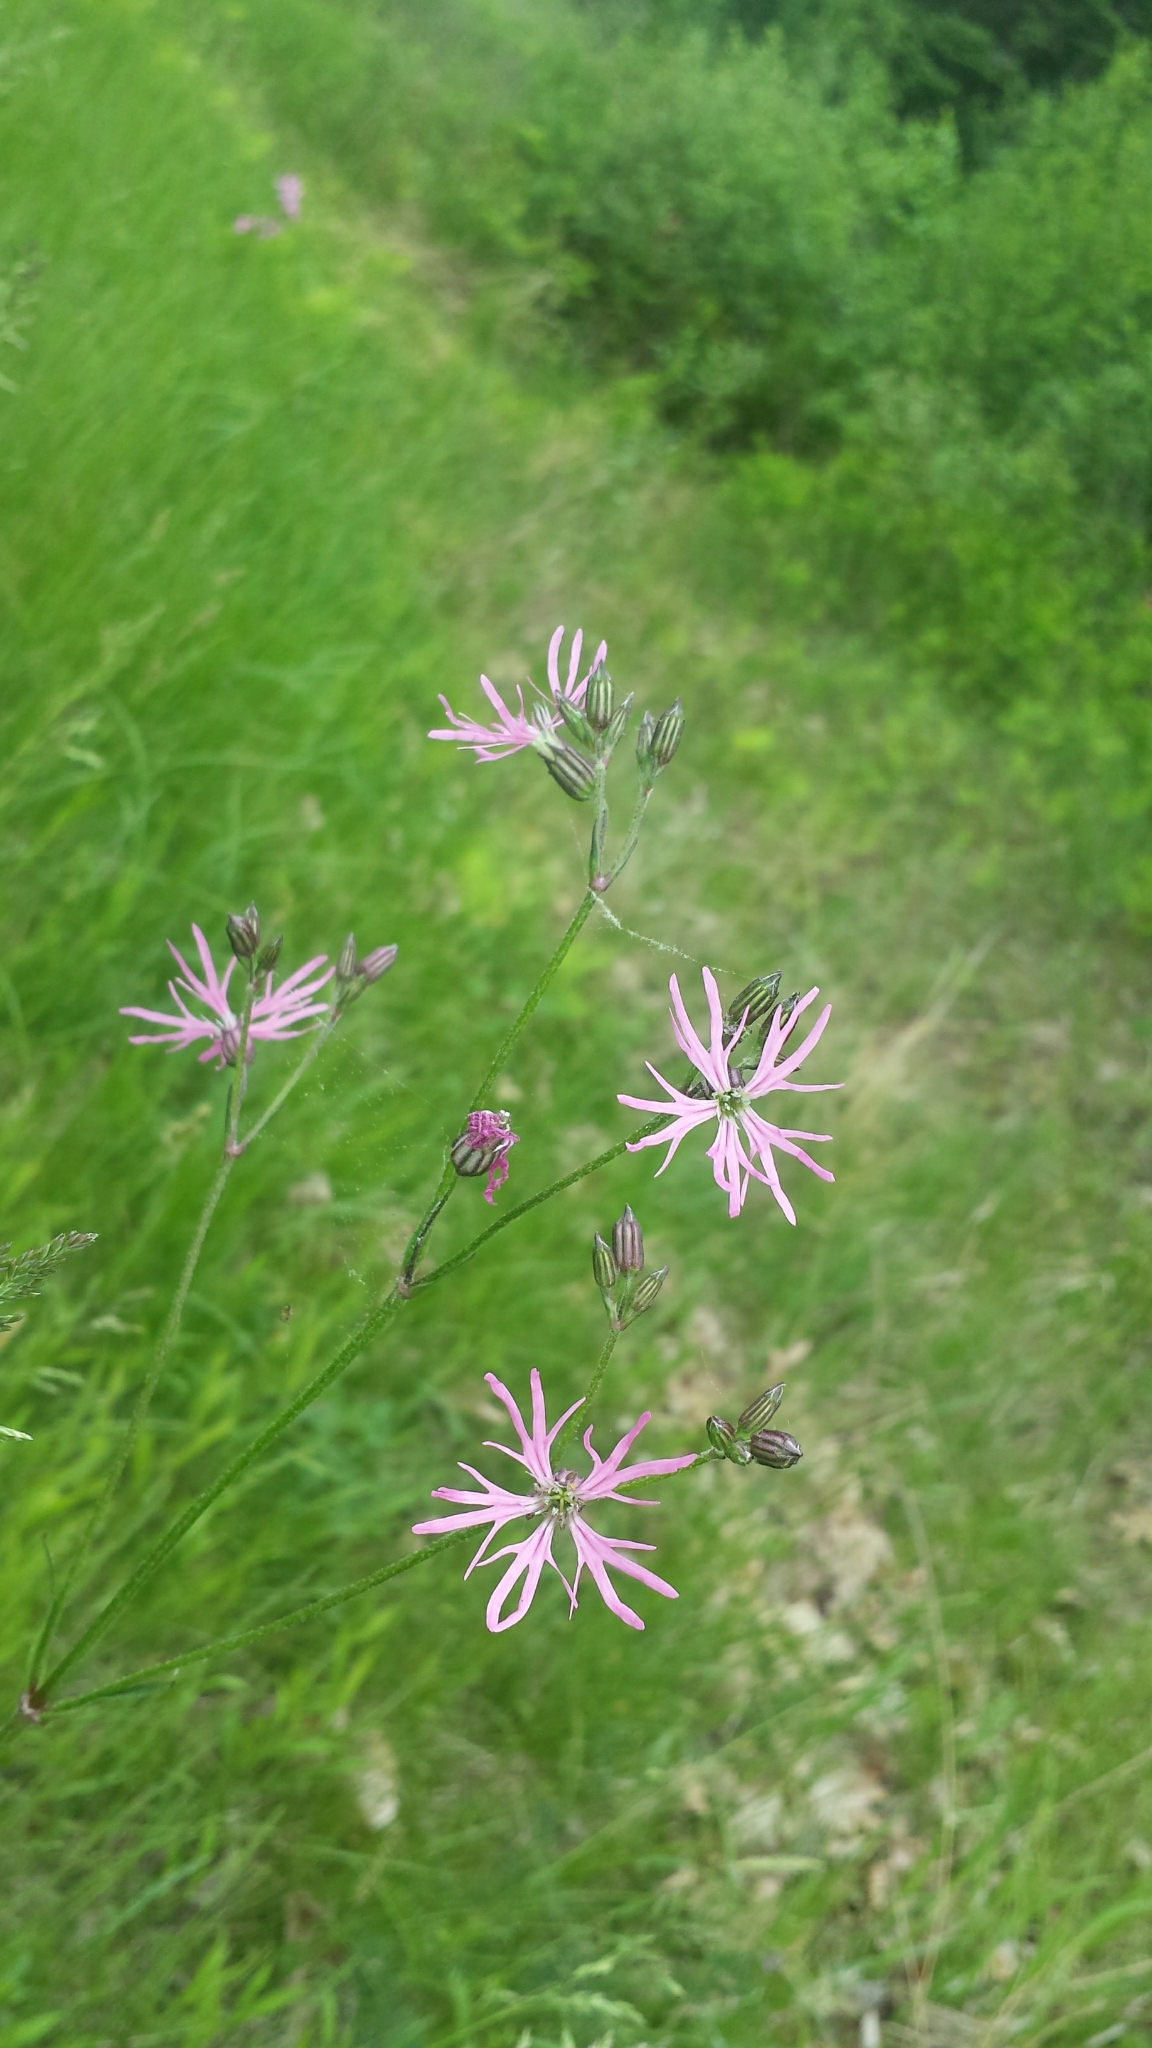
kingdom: Plantae
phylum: Tracheophyta
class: Magnoliopsida
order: Caryophyllales
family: Caryophyllaceae
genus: Silene
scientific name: Silene flos-cuculi
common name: Ragged-robin
